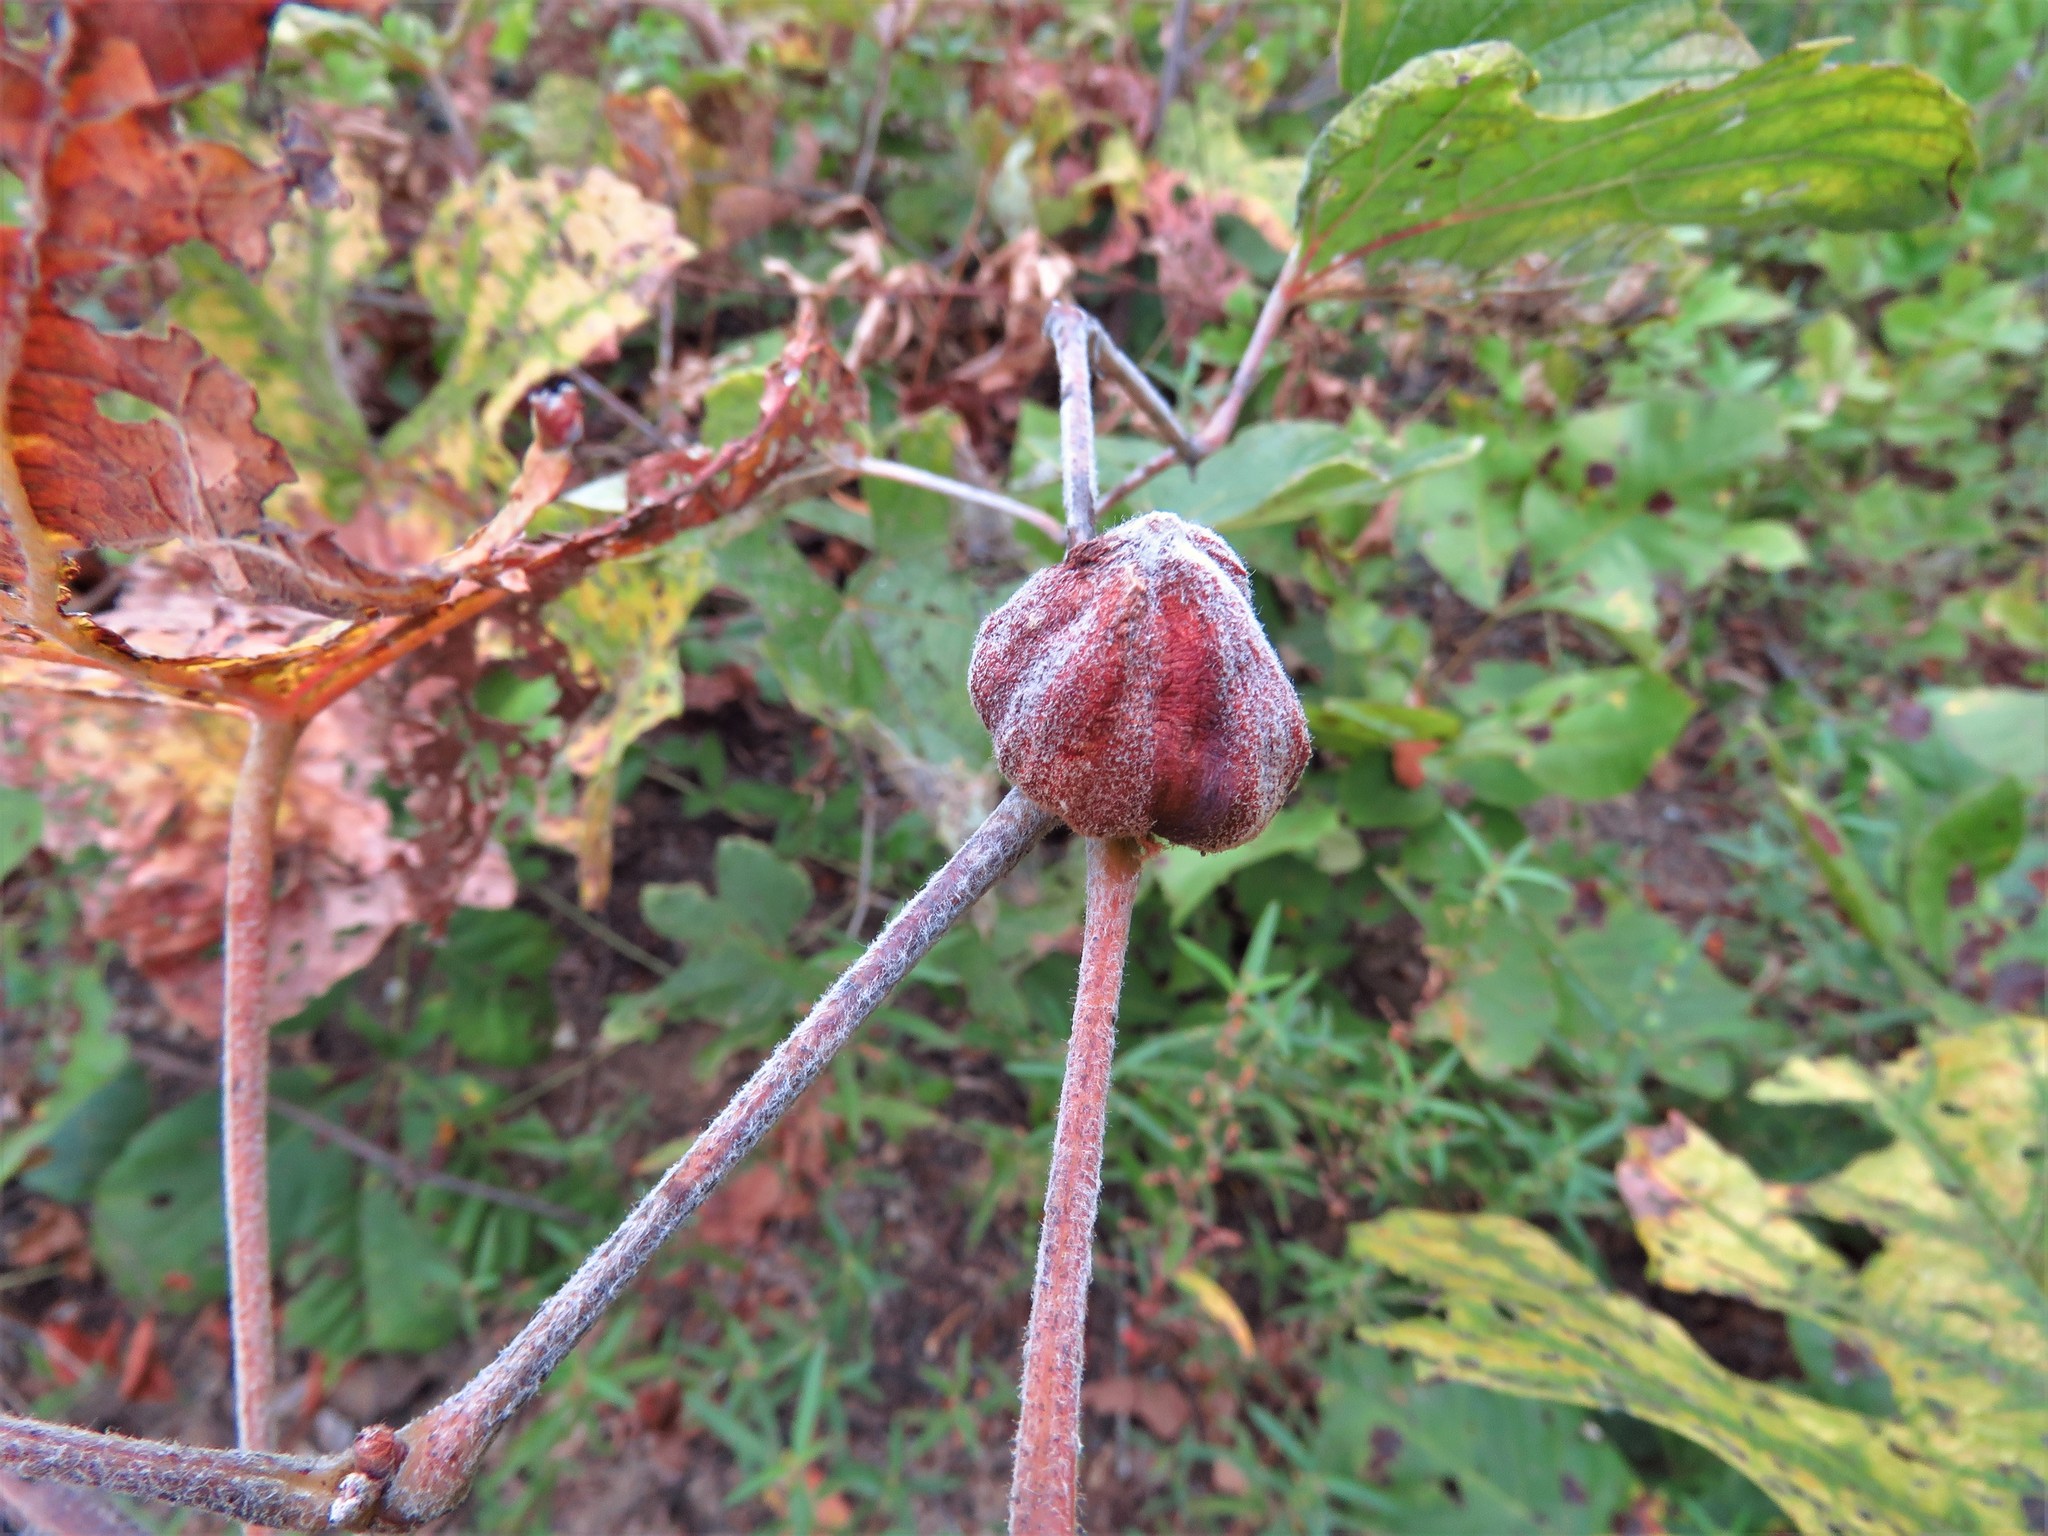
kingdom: Animalia
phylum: Arthropoda
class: Insecta
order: Diptera
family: Cecidomyiidae
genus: Ampelomyia
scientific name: Ampelomyia vitispomum
